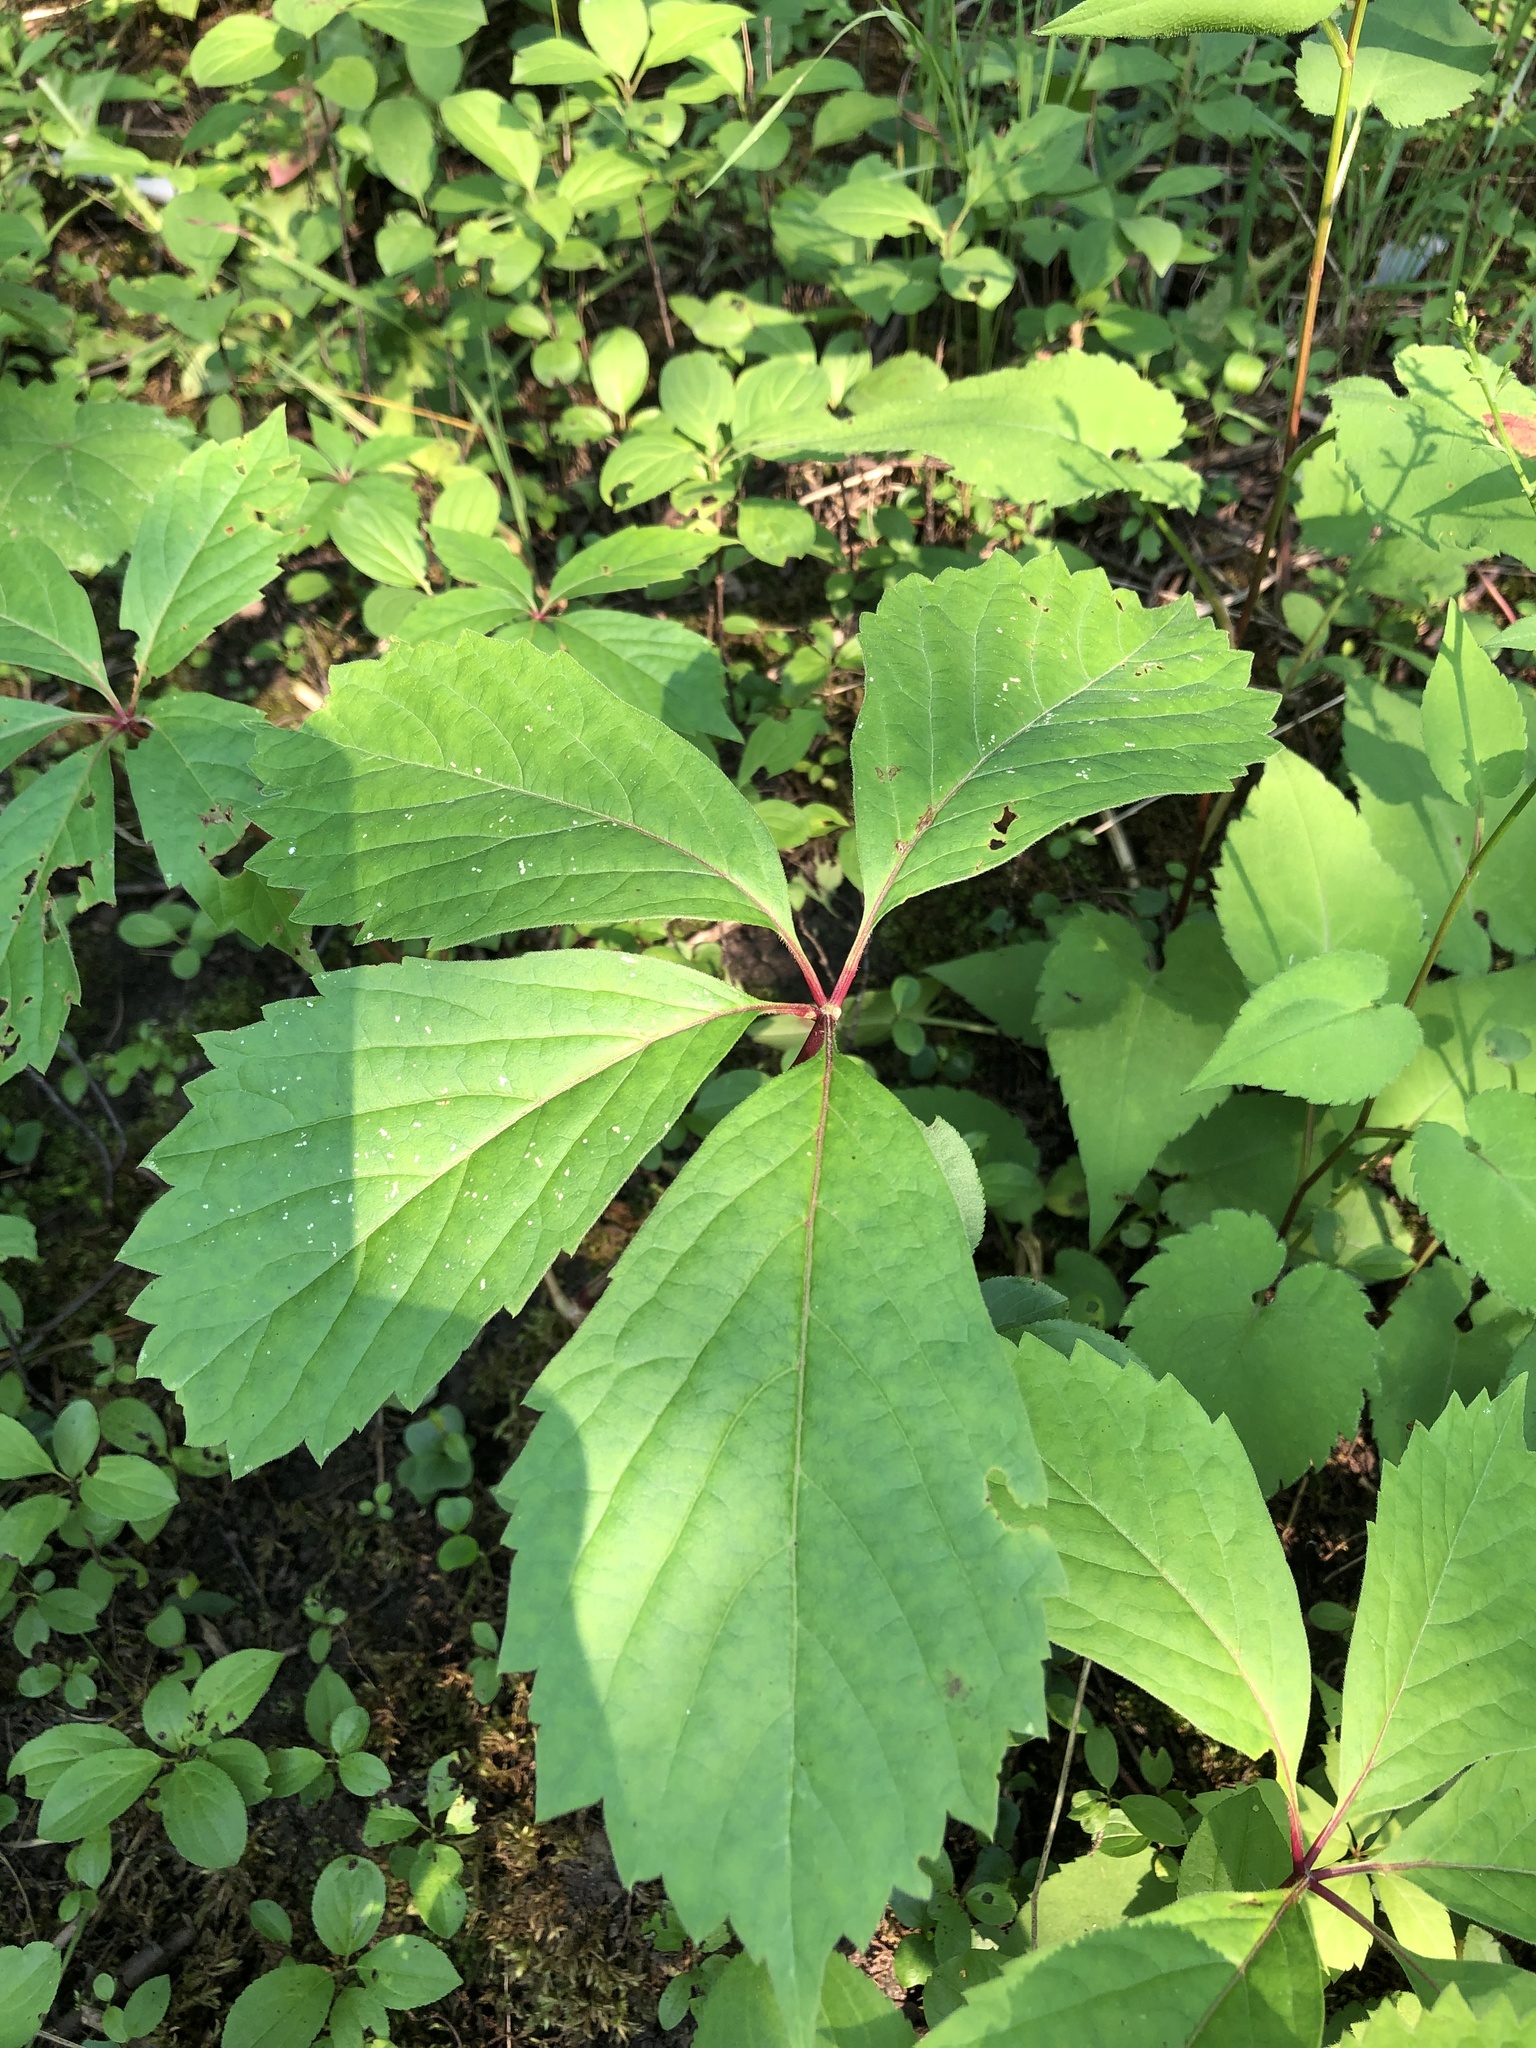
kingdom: Plantae
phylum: Tracheophyta
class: Magnoliopsida
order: Vitales
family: Vitaceae
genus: Parthenocissus
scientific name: Parthenocissus inserta
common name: False virginia-creeper
